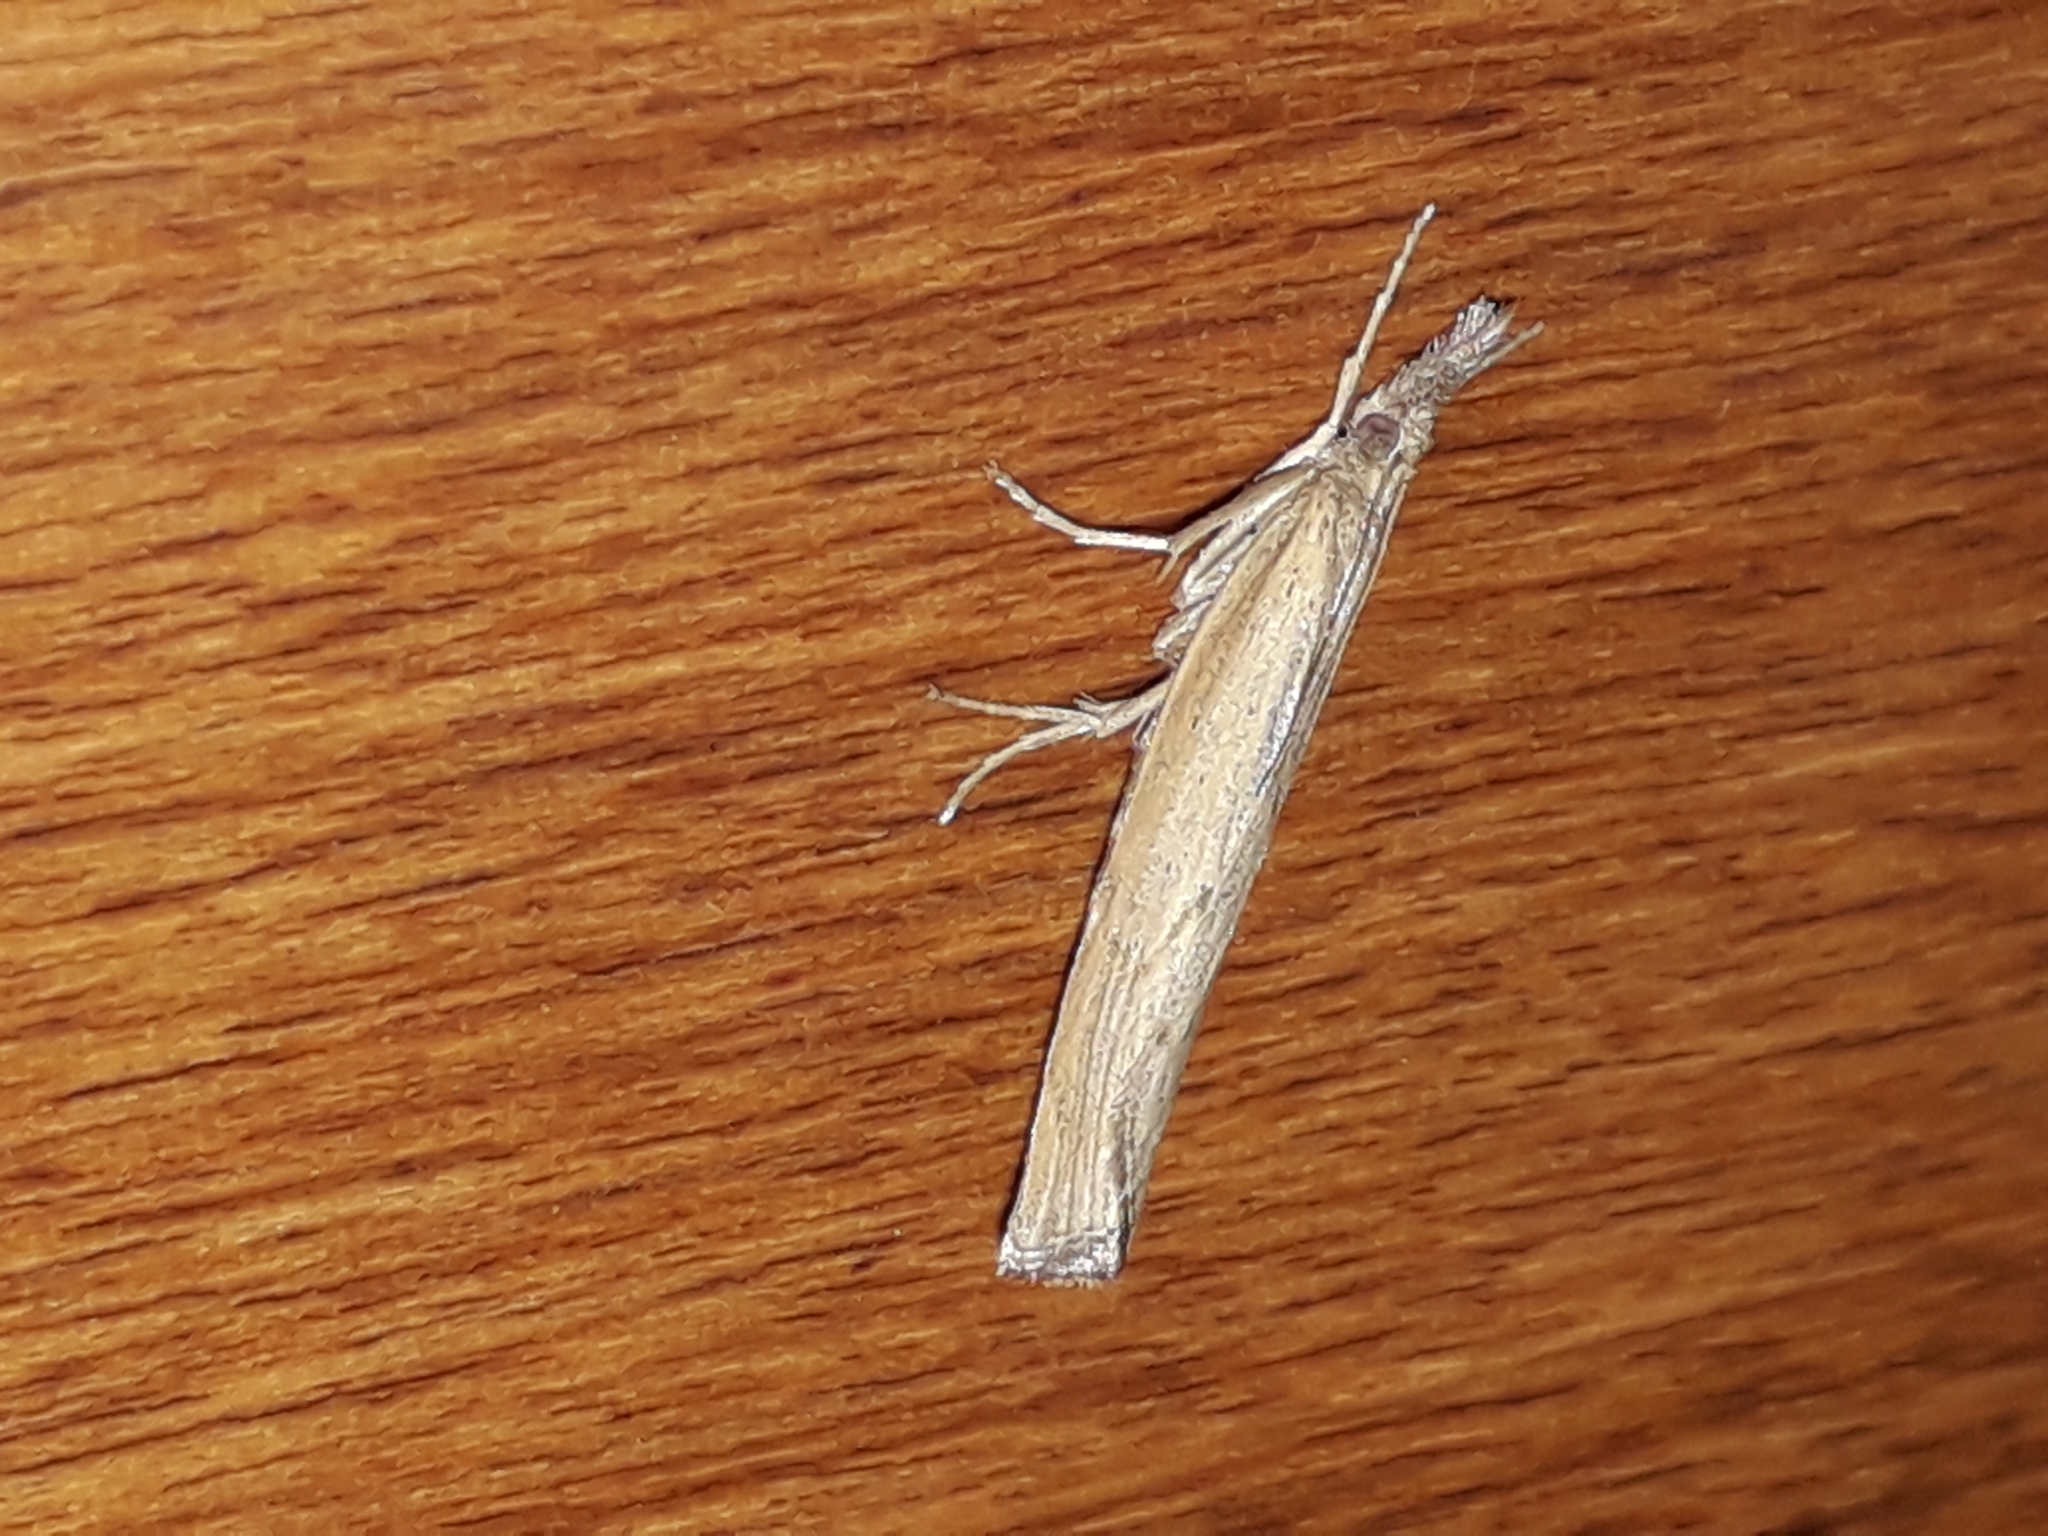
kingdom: Animalia
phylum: Arthropoda
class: Insecta
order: Lepidoptera
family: Crambidae
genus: Pediasia
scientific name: Pediasia contaminella
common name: Waste grass-veneer
